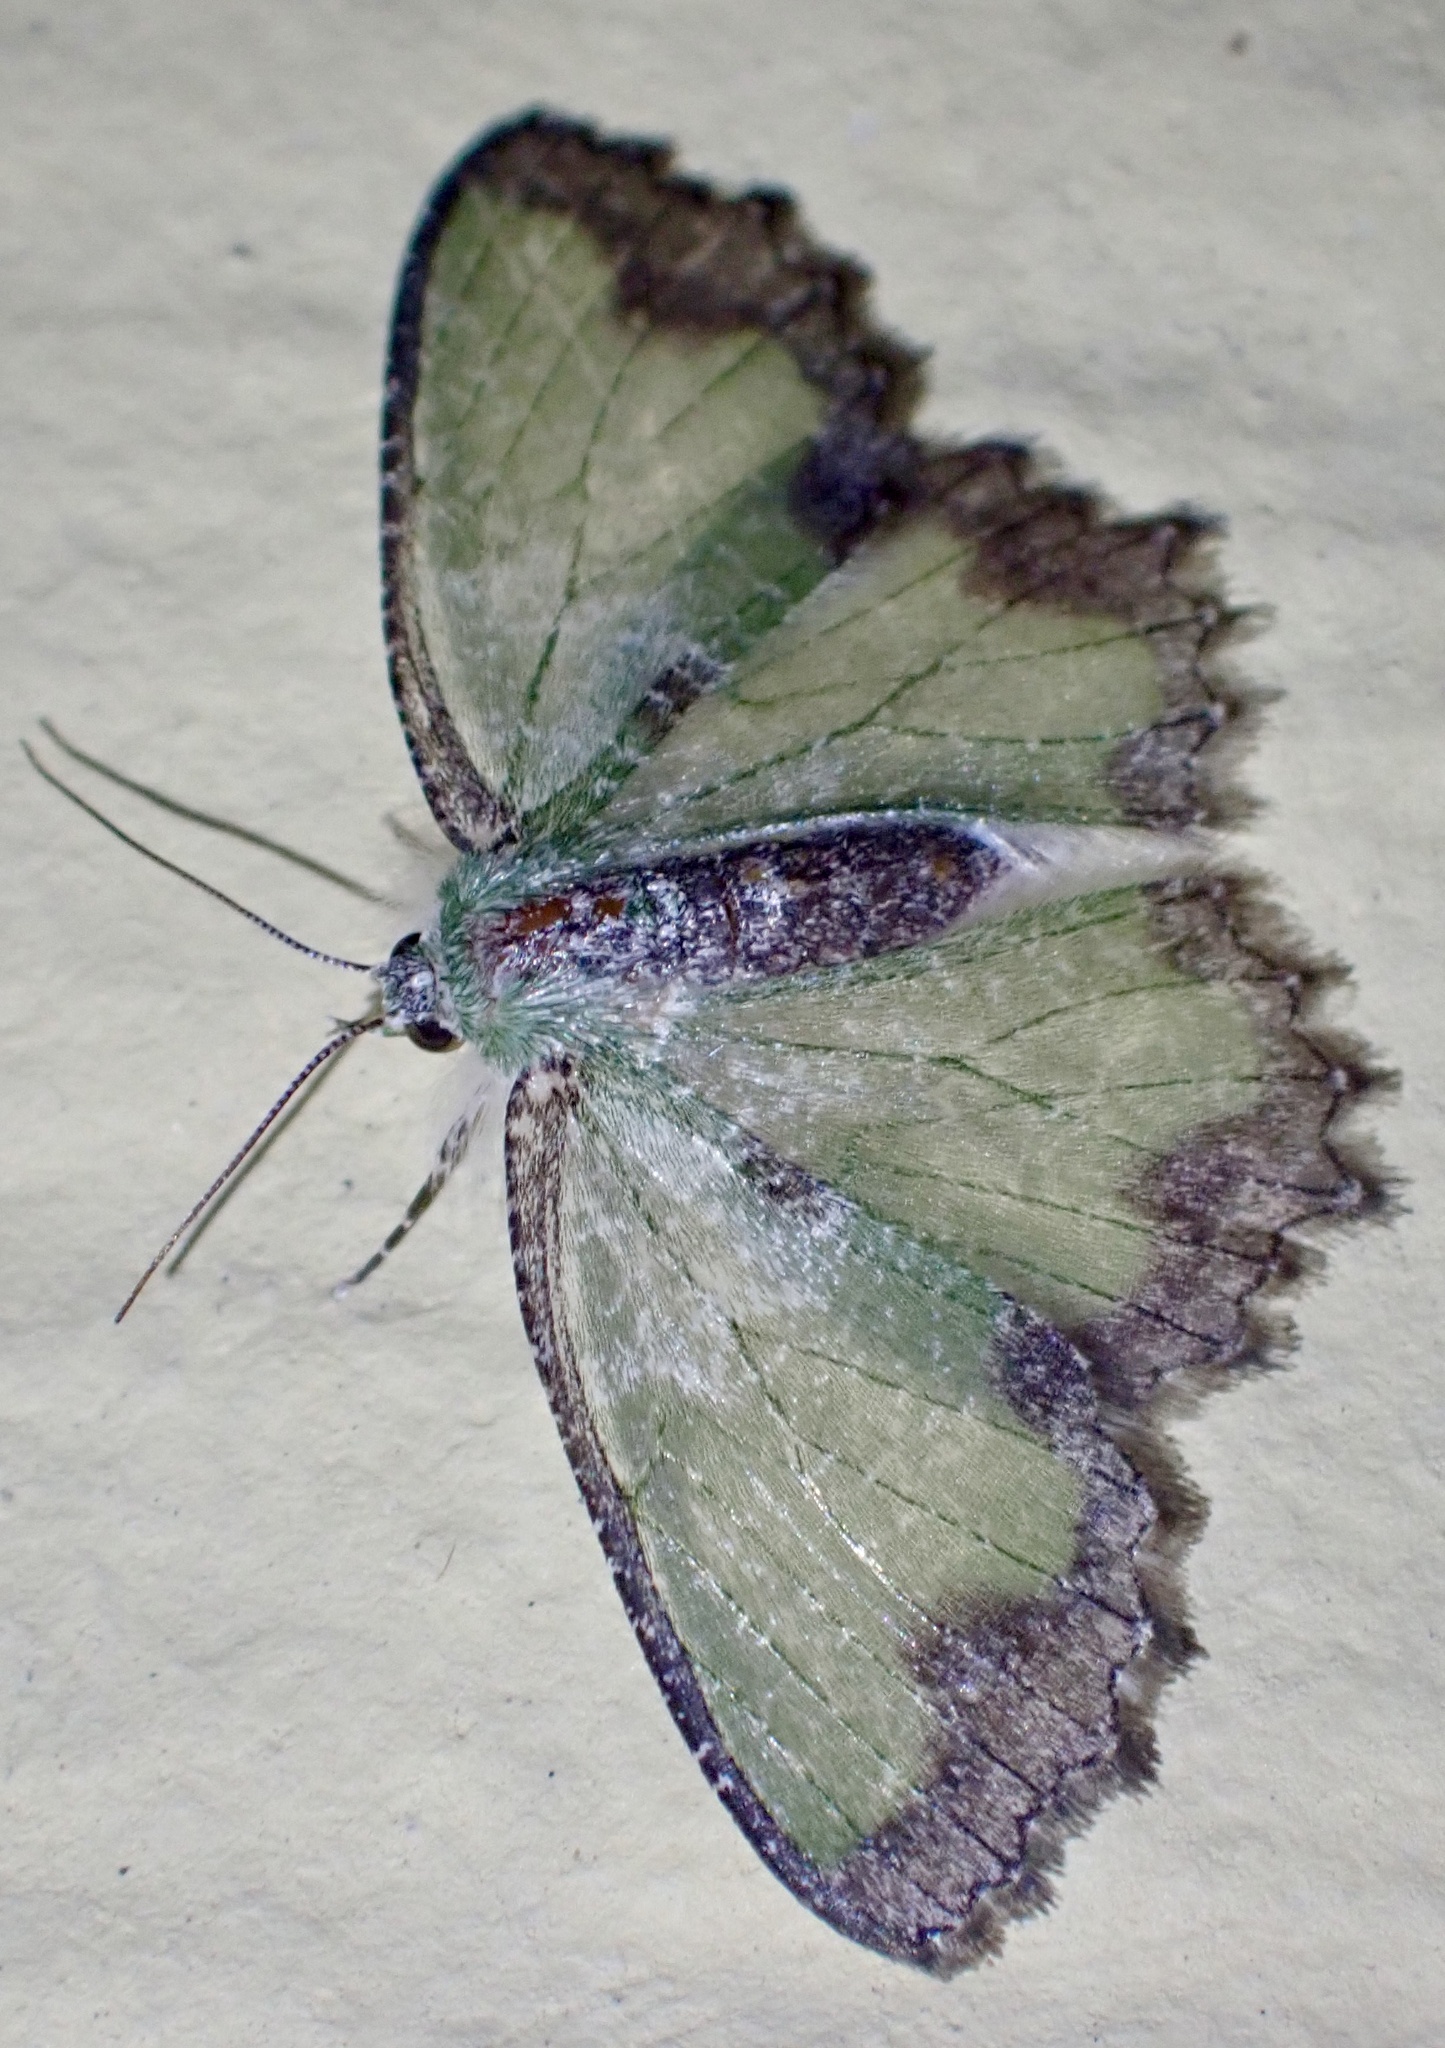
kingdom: Animalia
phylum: Arthropoda
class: Insecta
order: Lepidoptera
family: Geometridae
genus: Eucyclodes
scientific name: Eucyclodes iridescens
